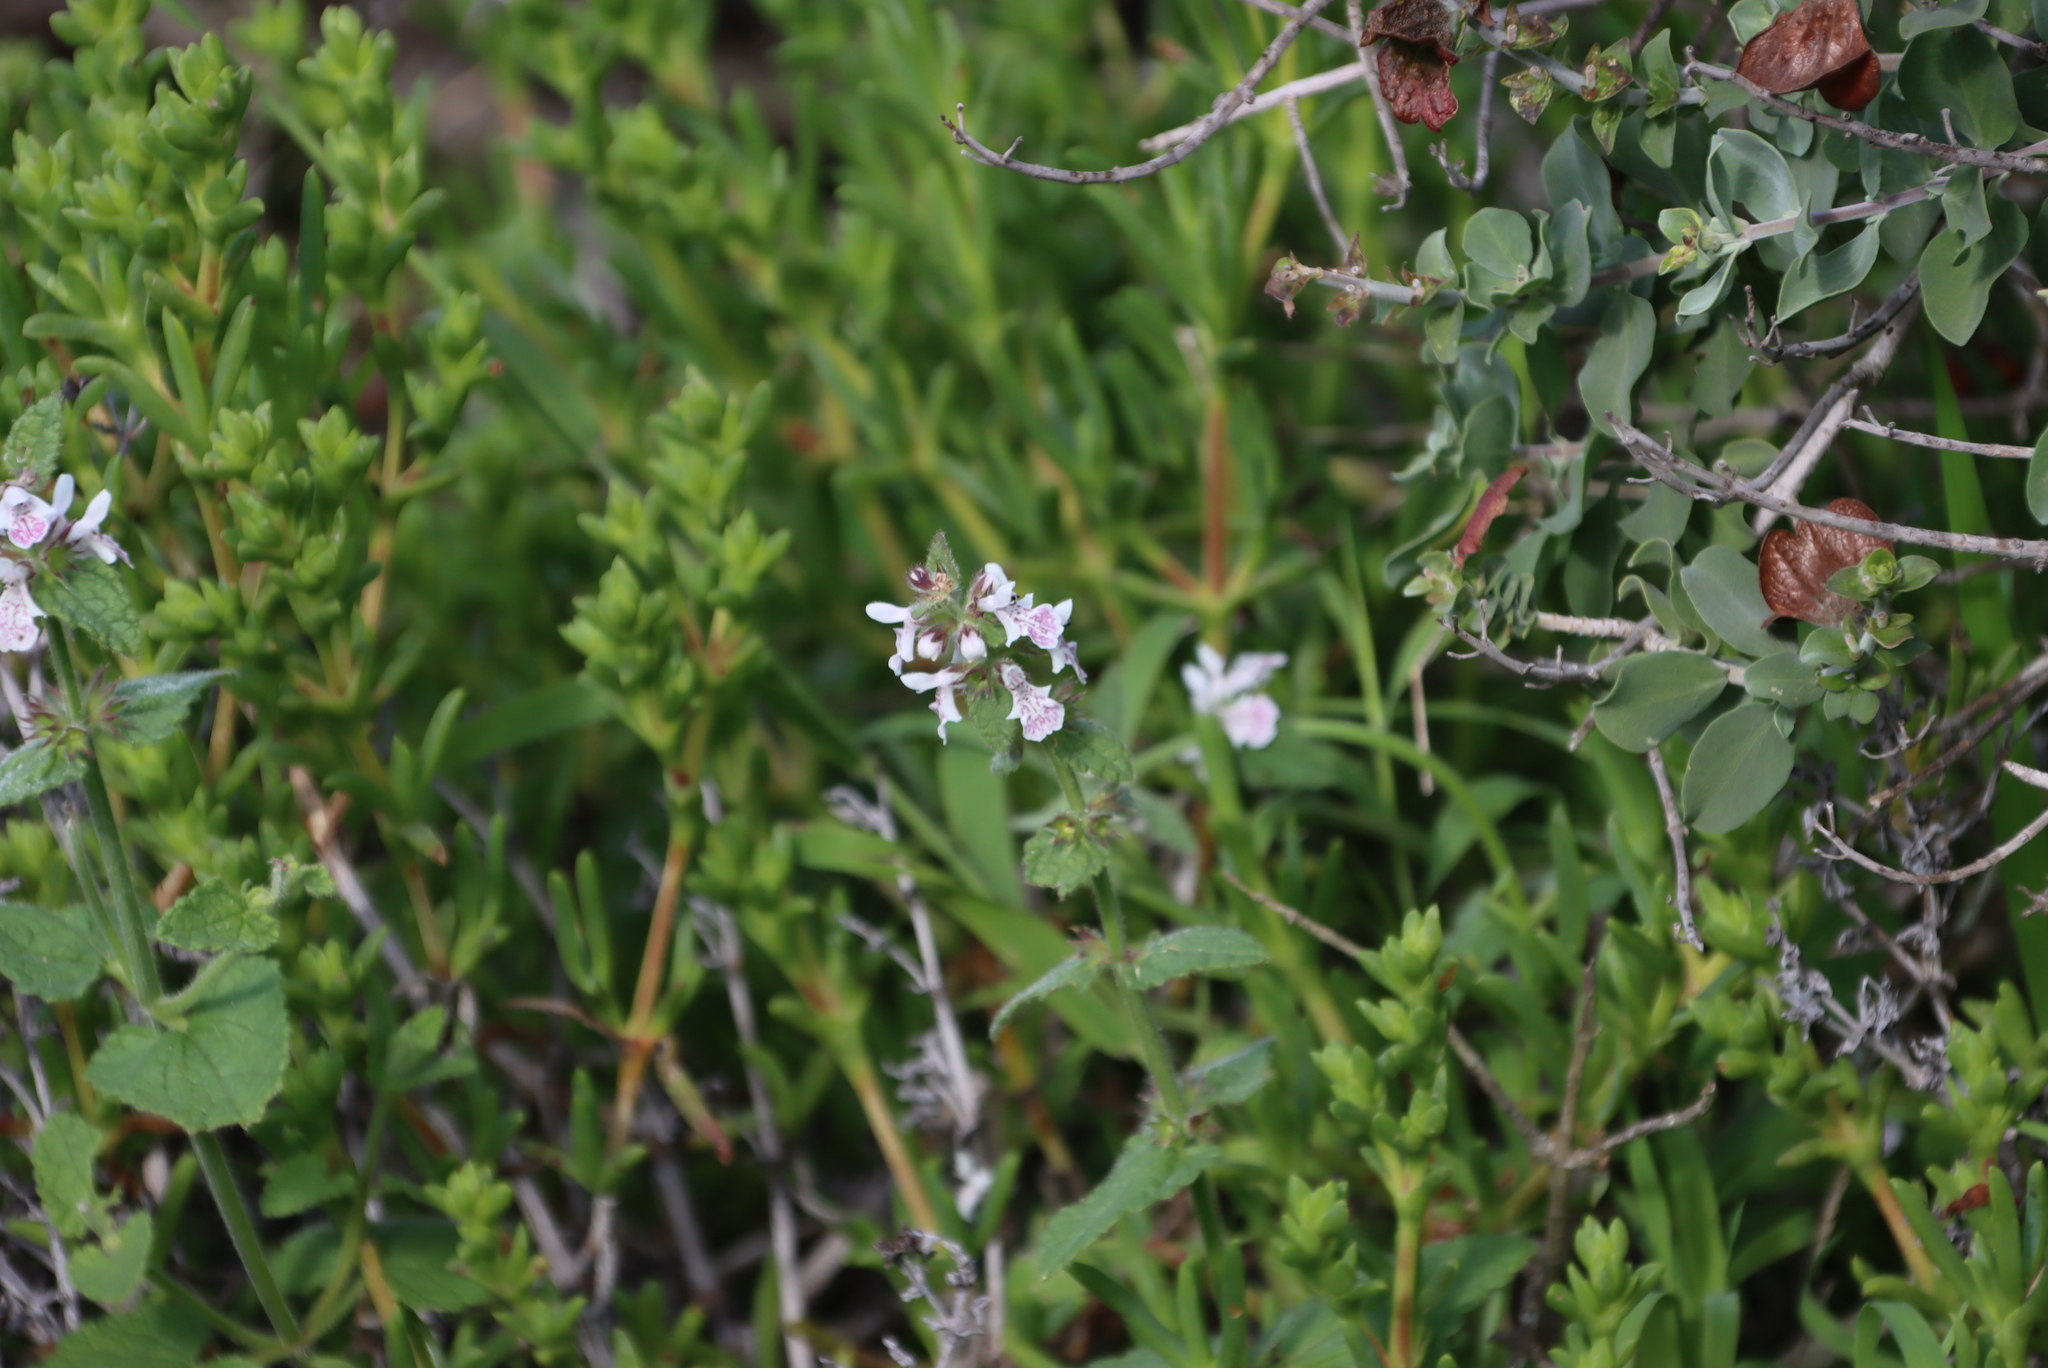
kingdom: Plantae
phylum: Tracheophyta
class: Magnoliopsida
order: Lamiales
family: Lamiaceae
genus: Stachys
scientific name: Stachys bolusii
